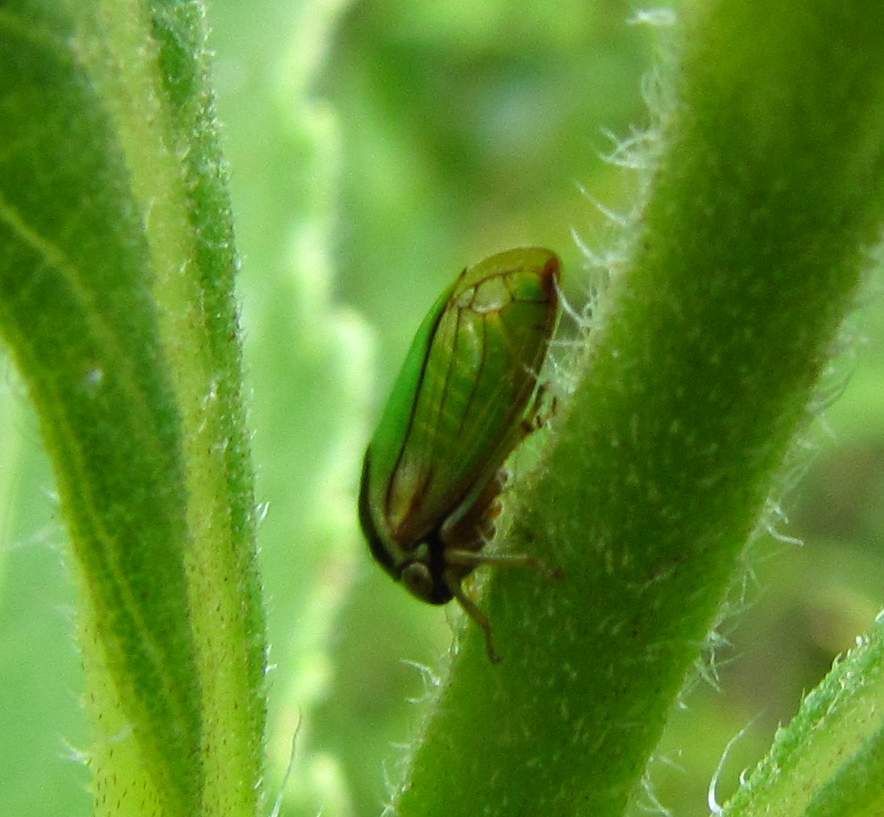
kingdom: Animalia
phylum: Arthropoda
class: Insecta
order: Hemiptera
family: Membracidae
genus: Acutalis
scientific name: Acutalis tartarea
